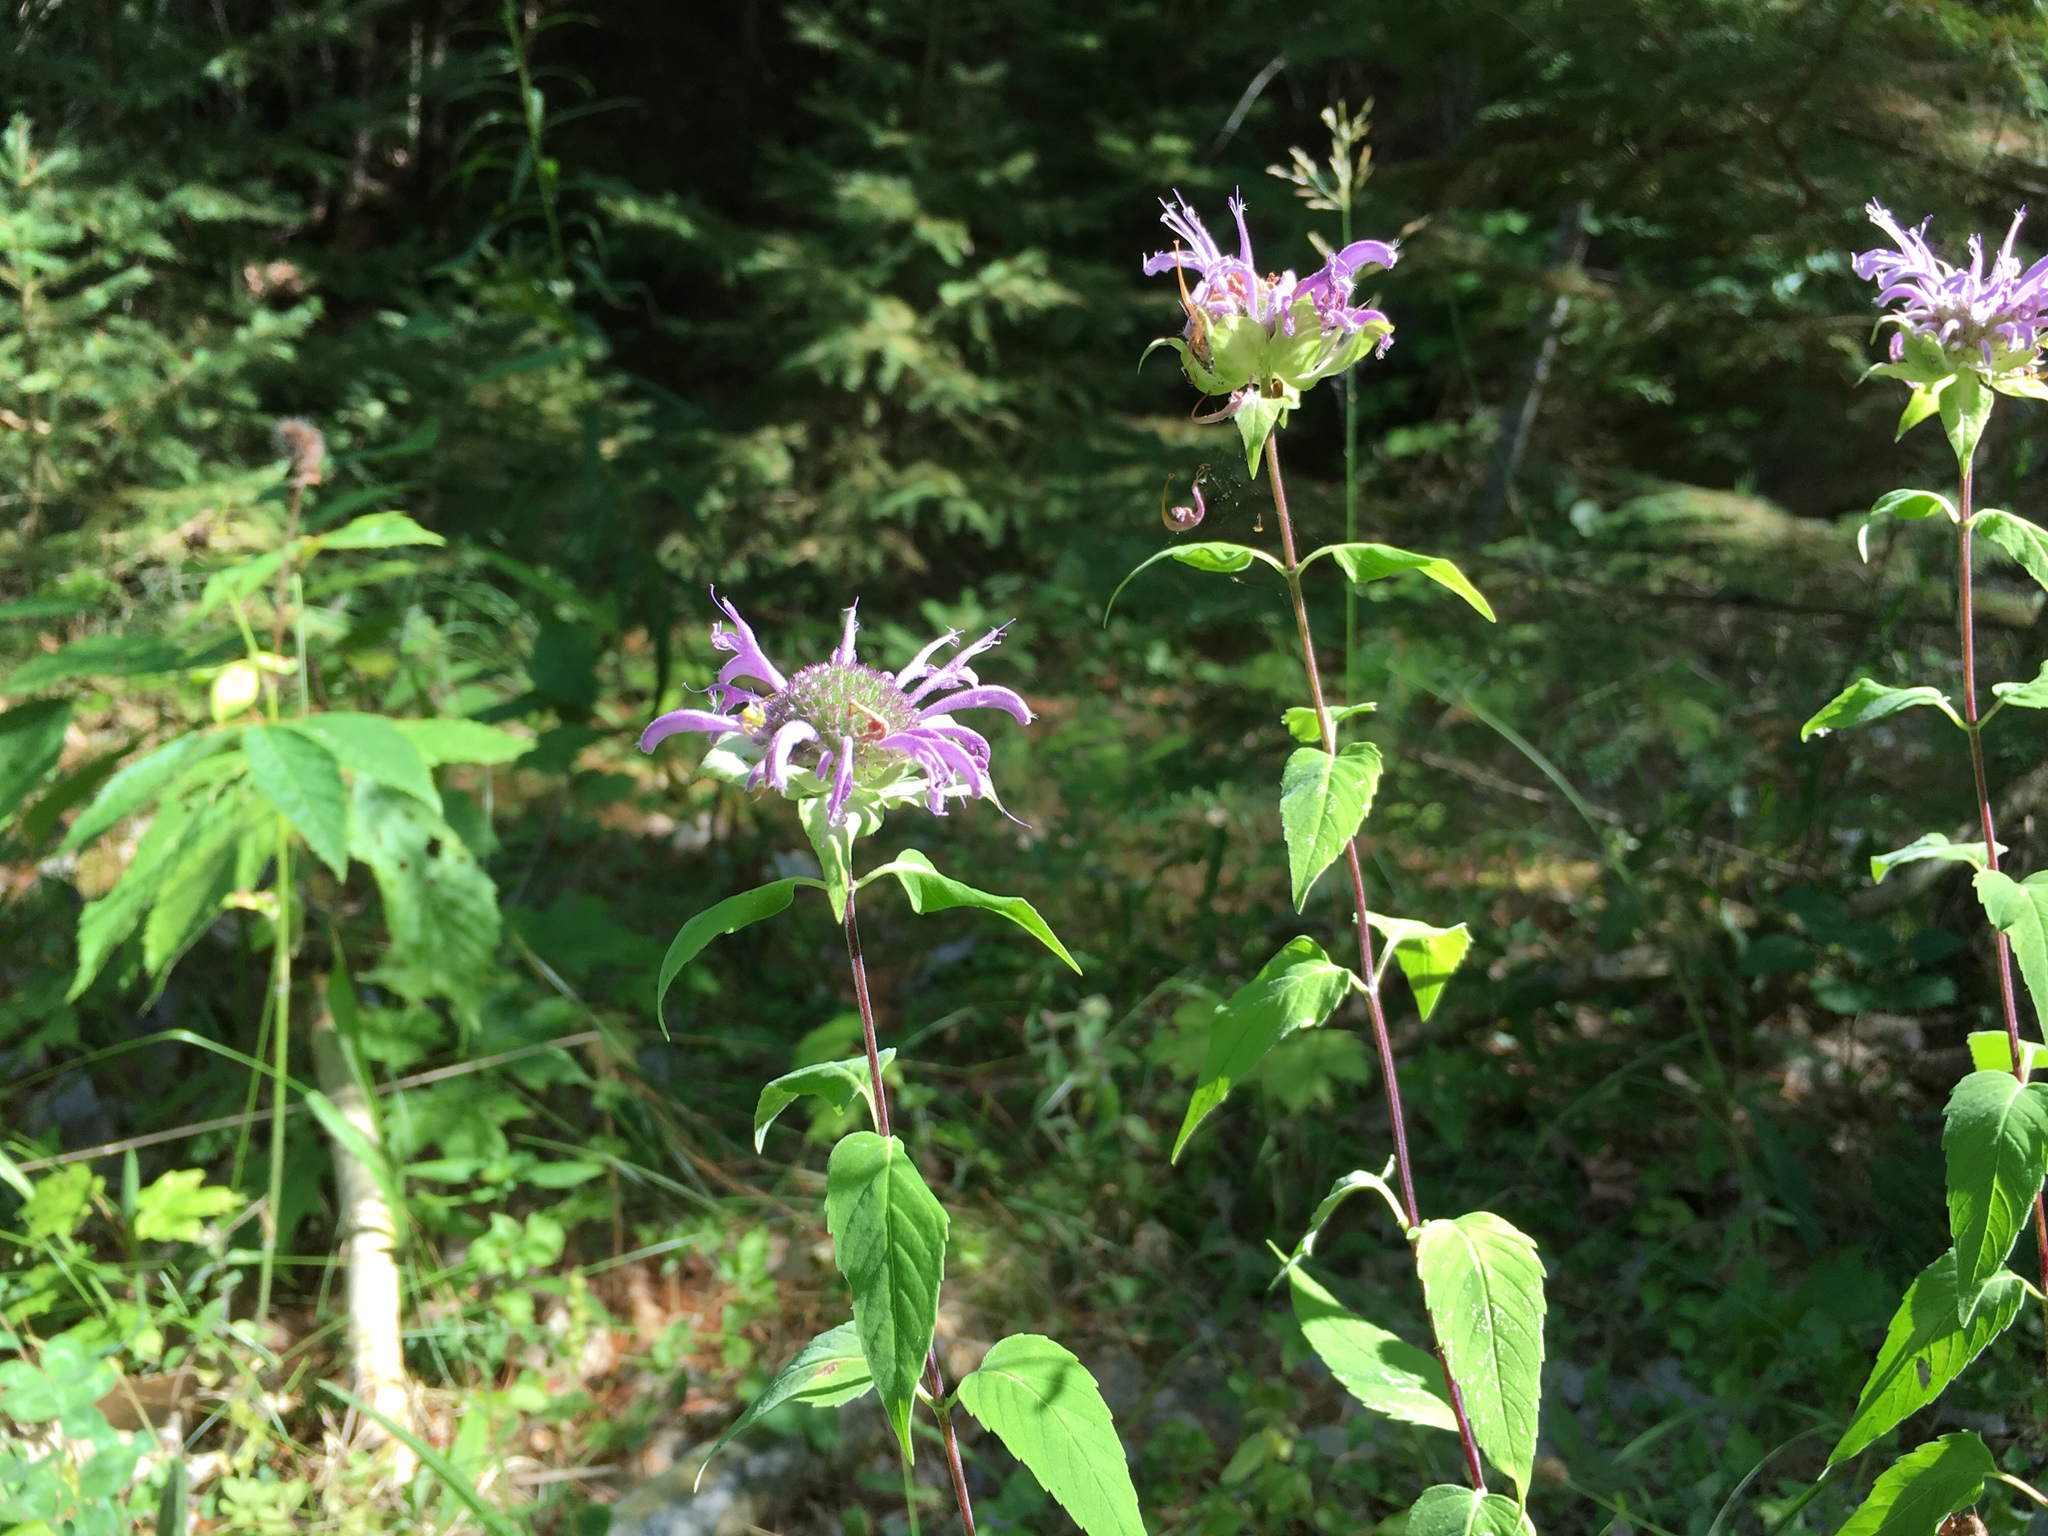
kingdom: Plantae
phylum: Tracheophyta
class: Magnoliopsida
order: Lamiales
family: Lamiaceae
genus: Monarda
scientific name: Monarda fistulosa
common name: Purple beebalm
